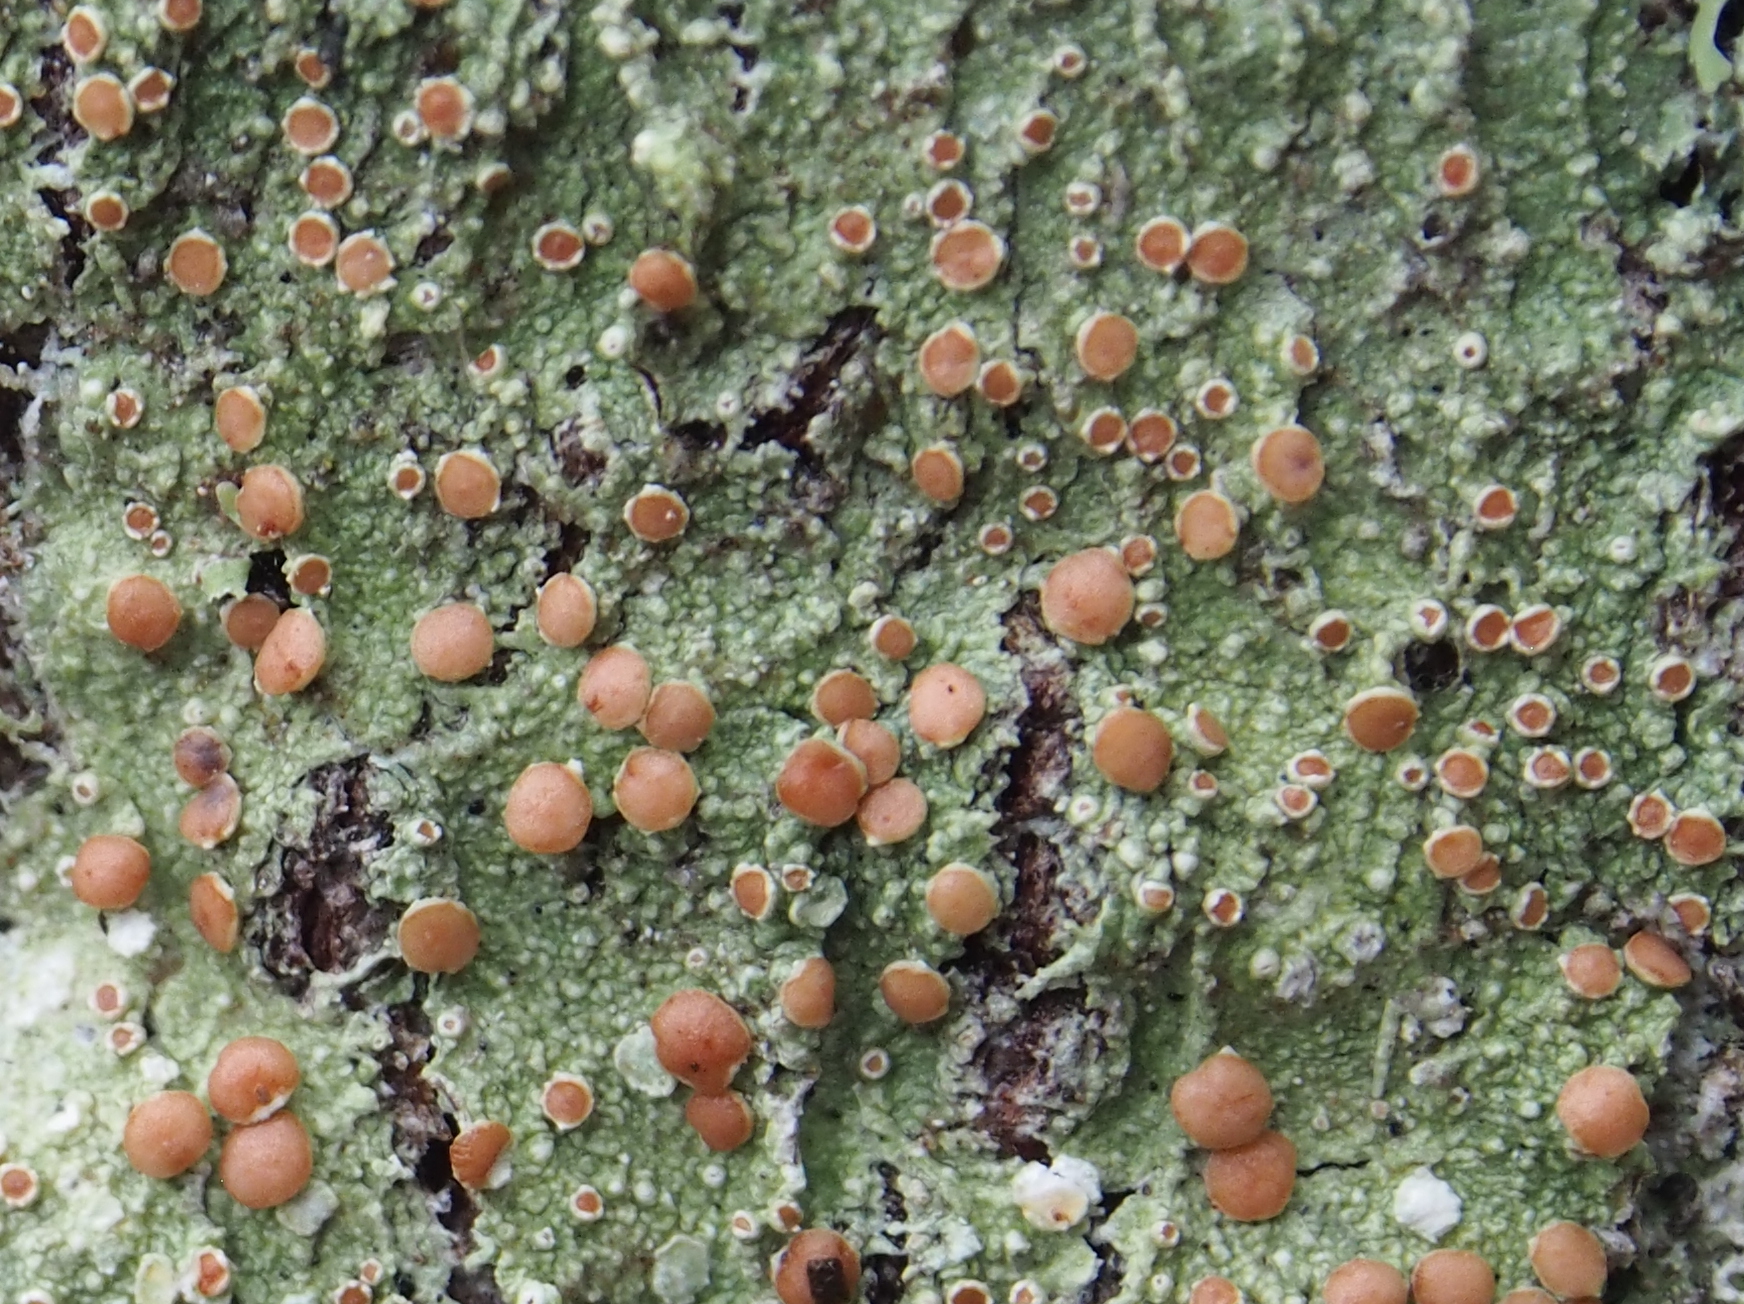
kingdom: Fungi
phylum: Ascomycota
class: Lecanoromycetes
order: Lecanorales
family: Sarrameanaceae
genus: Loxospora
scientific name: Loxospora ochrophaea
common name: Eastern ragged-rim lichen
